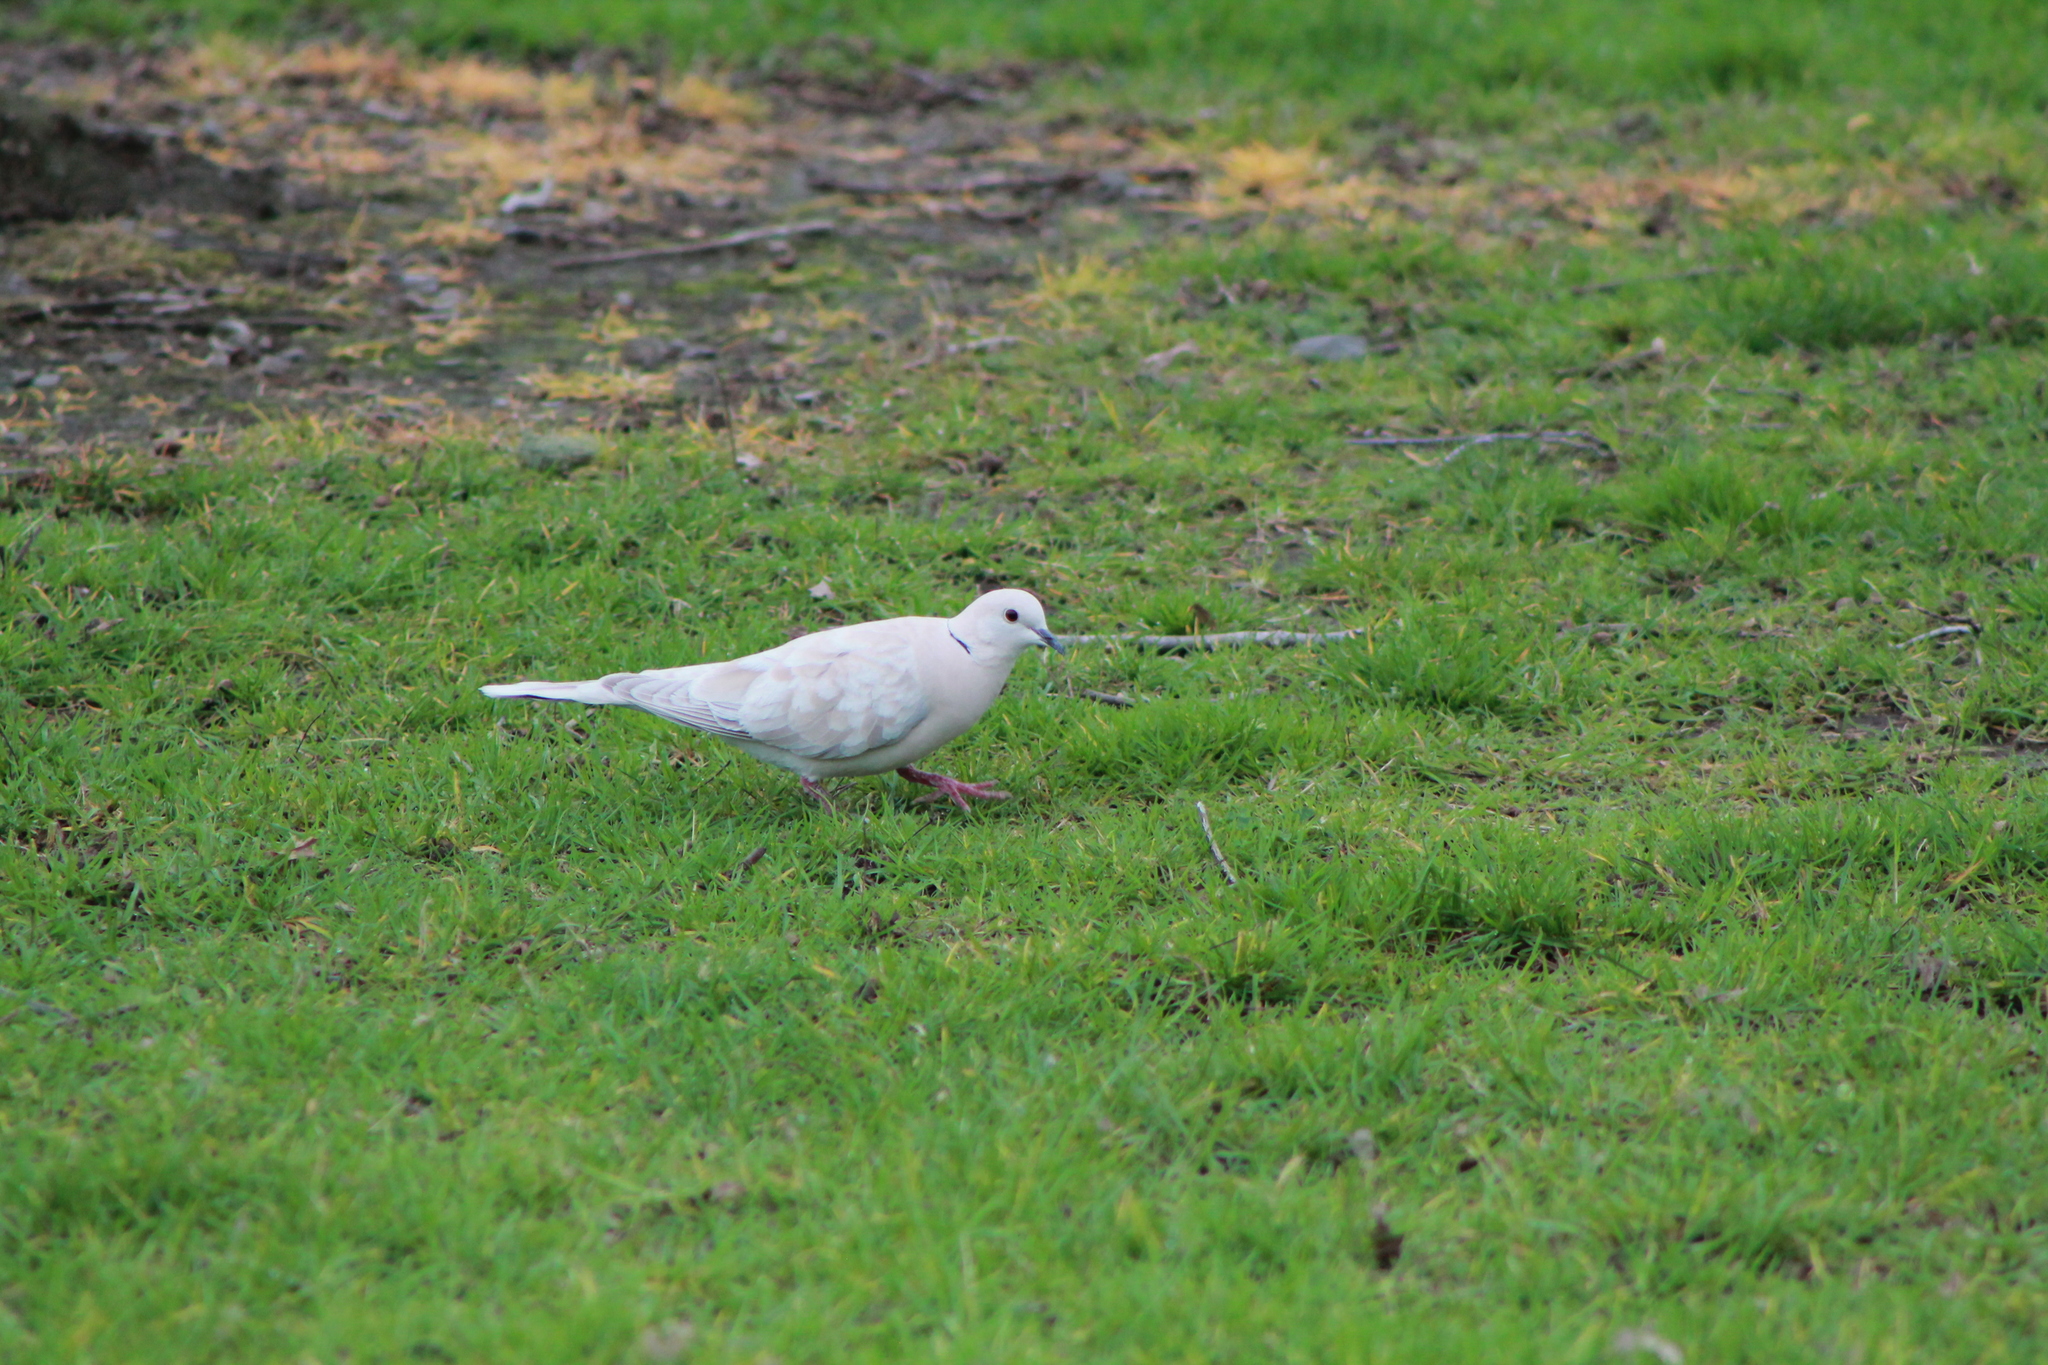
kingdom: Animalia
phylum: Chordata
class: Aves
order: Columbiformes
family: Columbidae
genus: Streptopelia
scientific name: Streptopelia roseogrisea
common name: African collared dove
